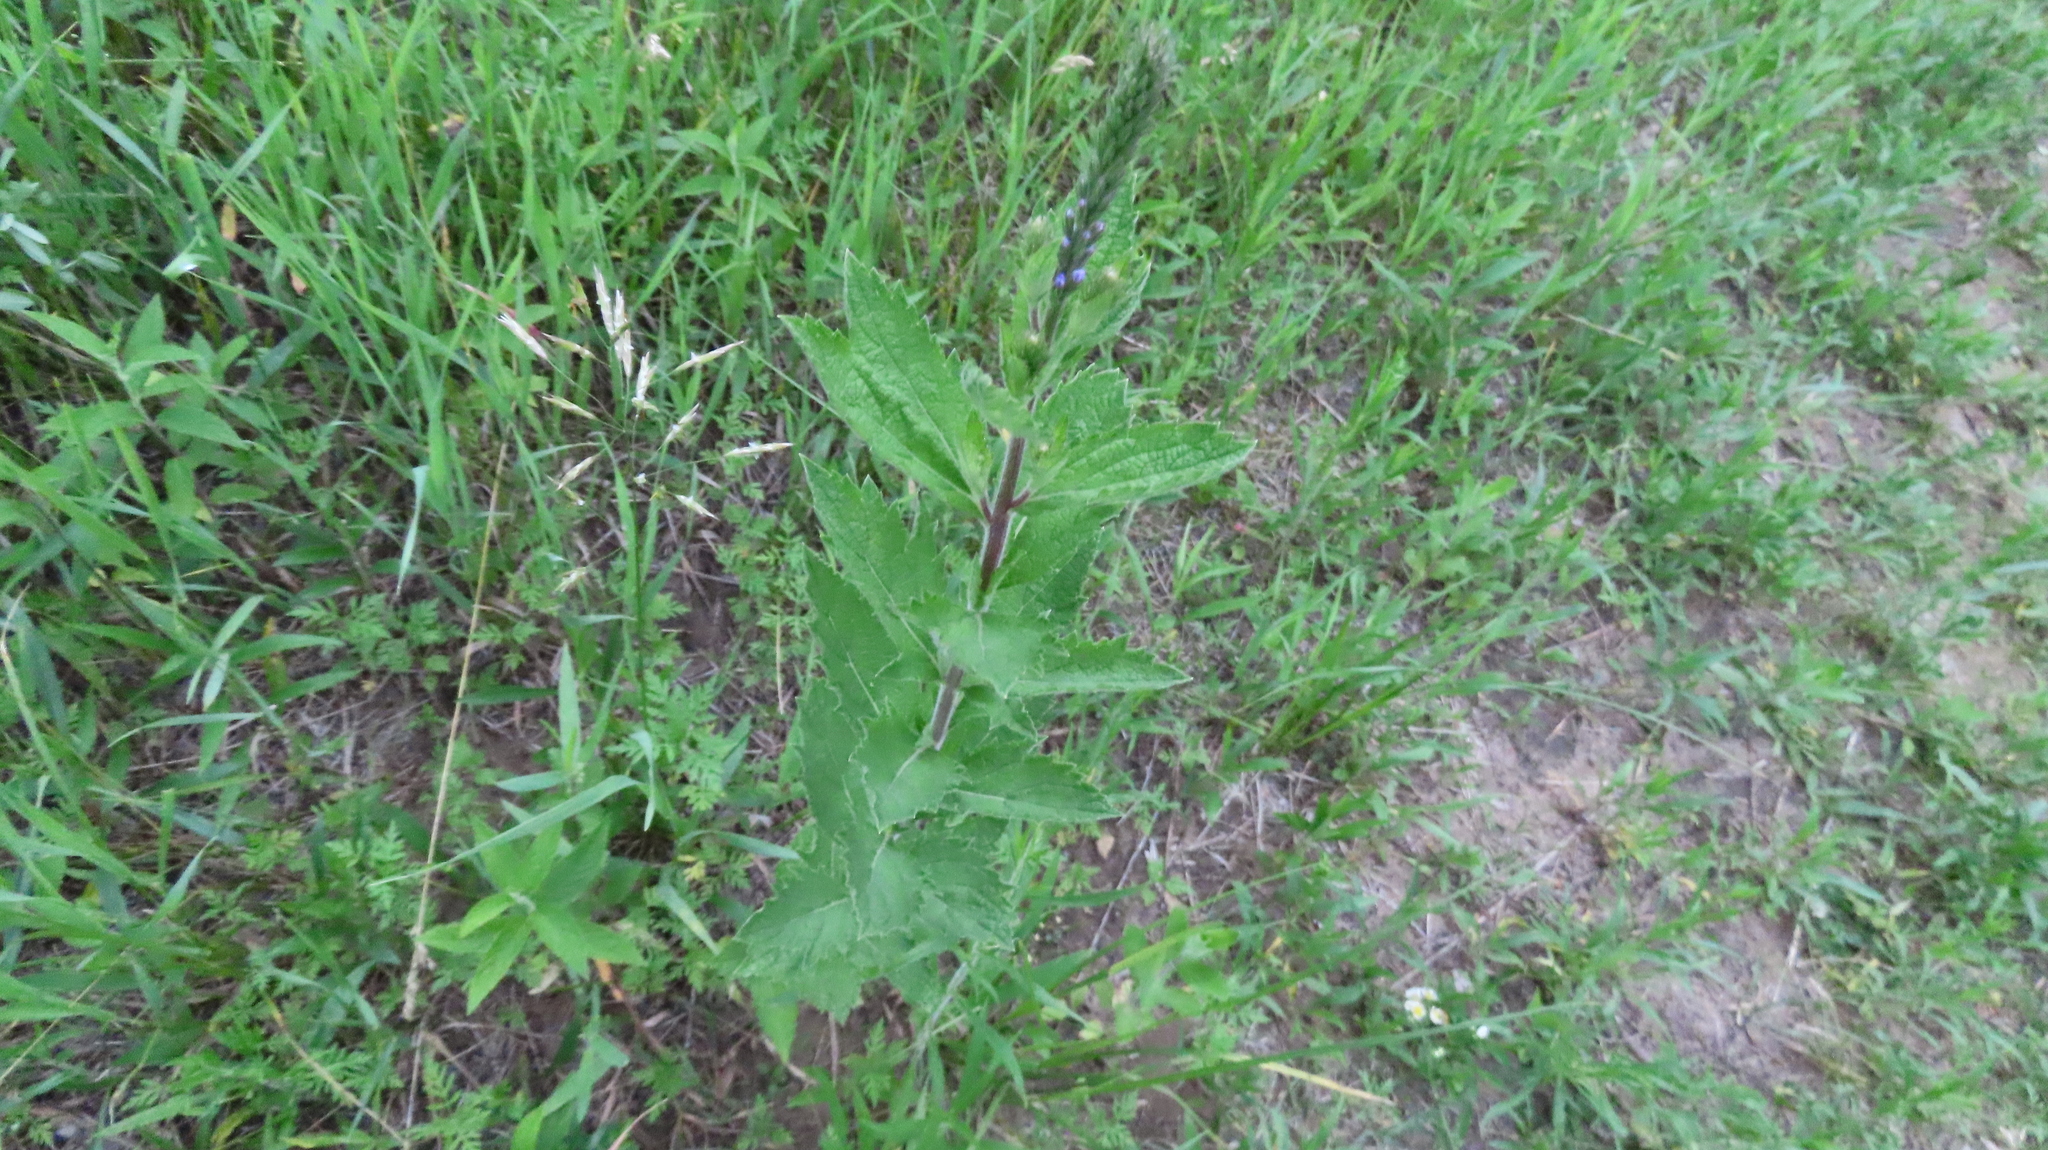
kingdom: Plantae
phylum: Tracheophyta
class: Magnoliopsida
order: Lamiales
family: Verbenaceae
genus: Verbena
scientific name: Verbena stricta
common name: Hoary vervain
